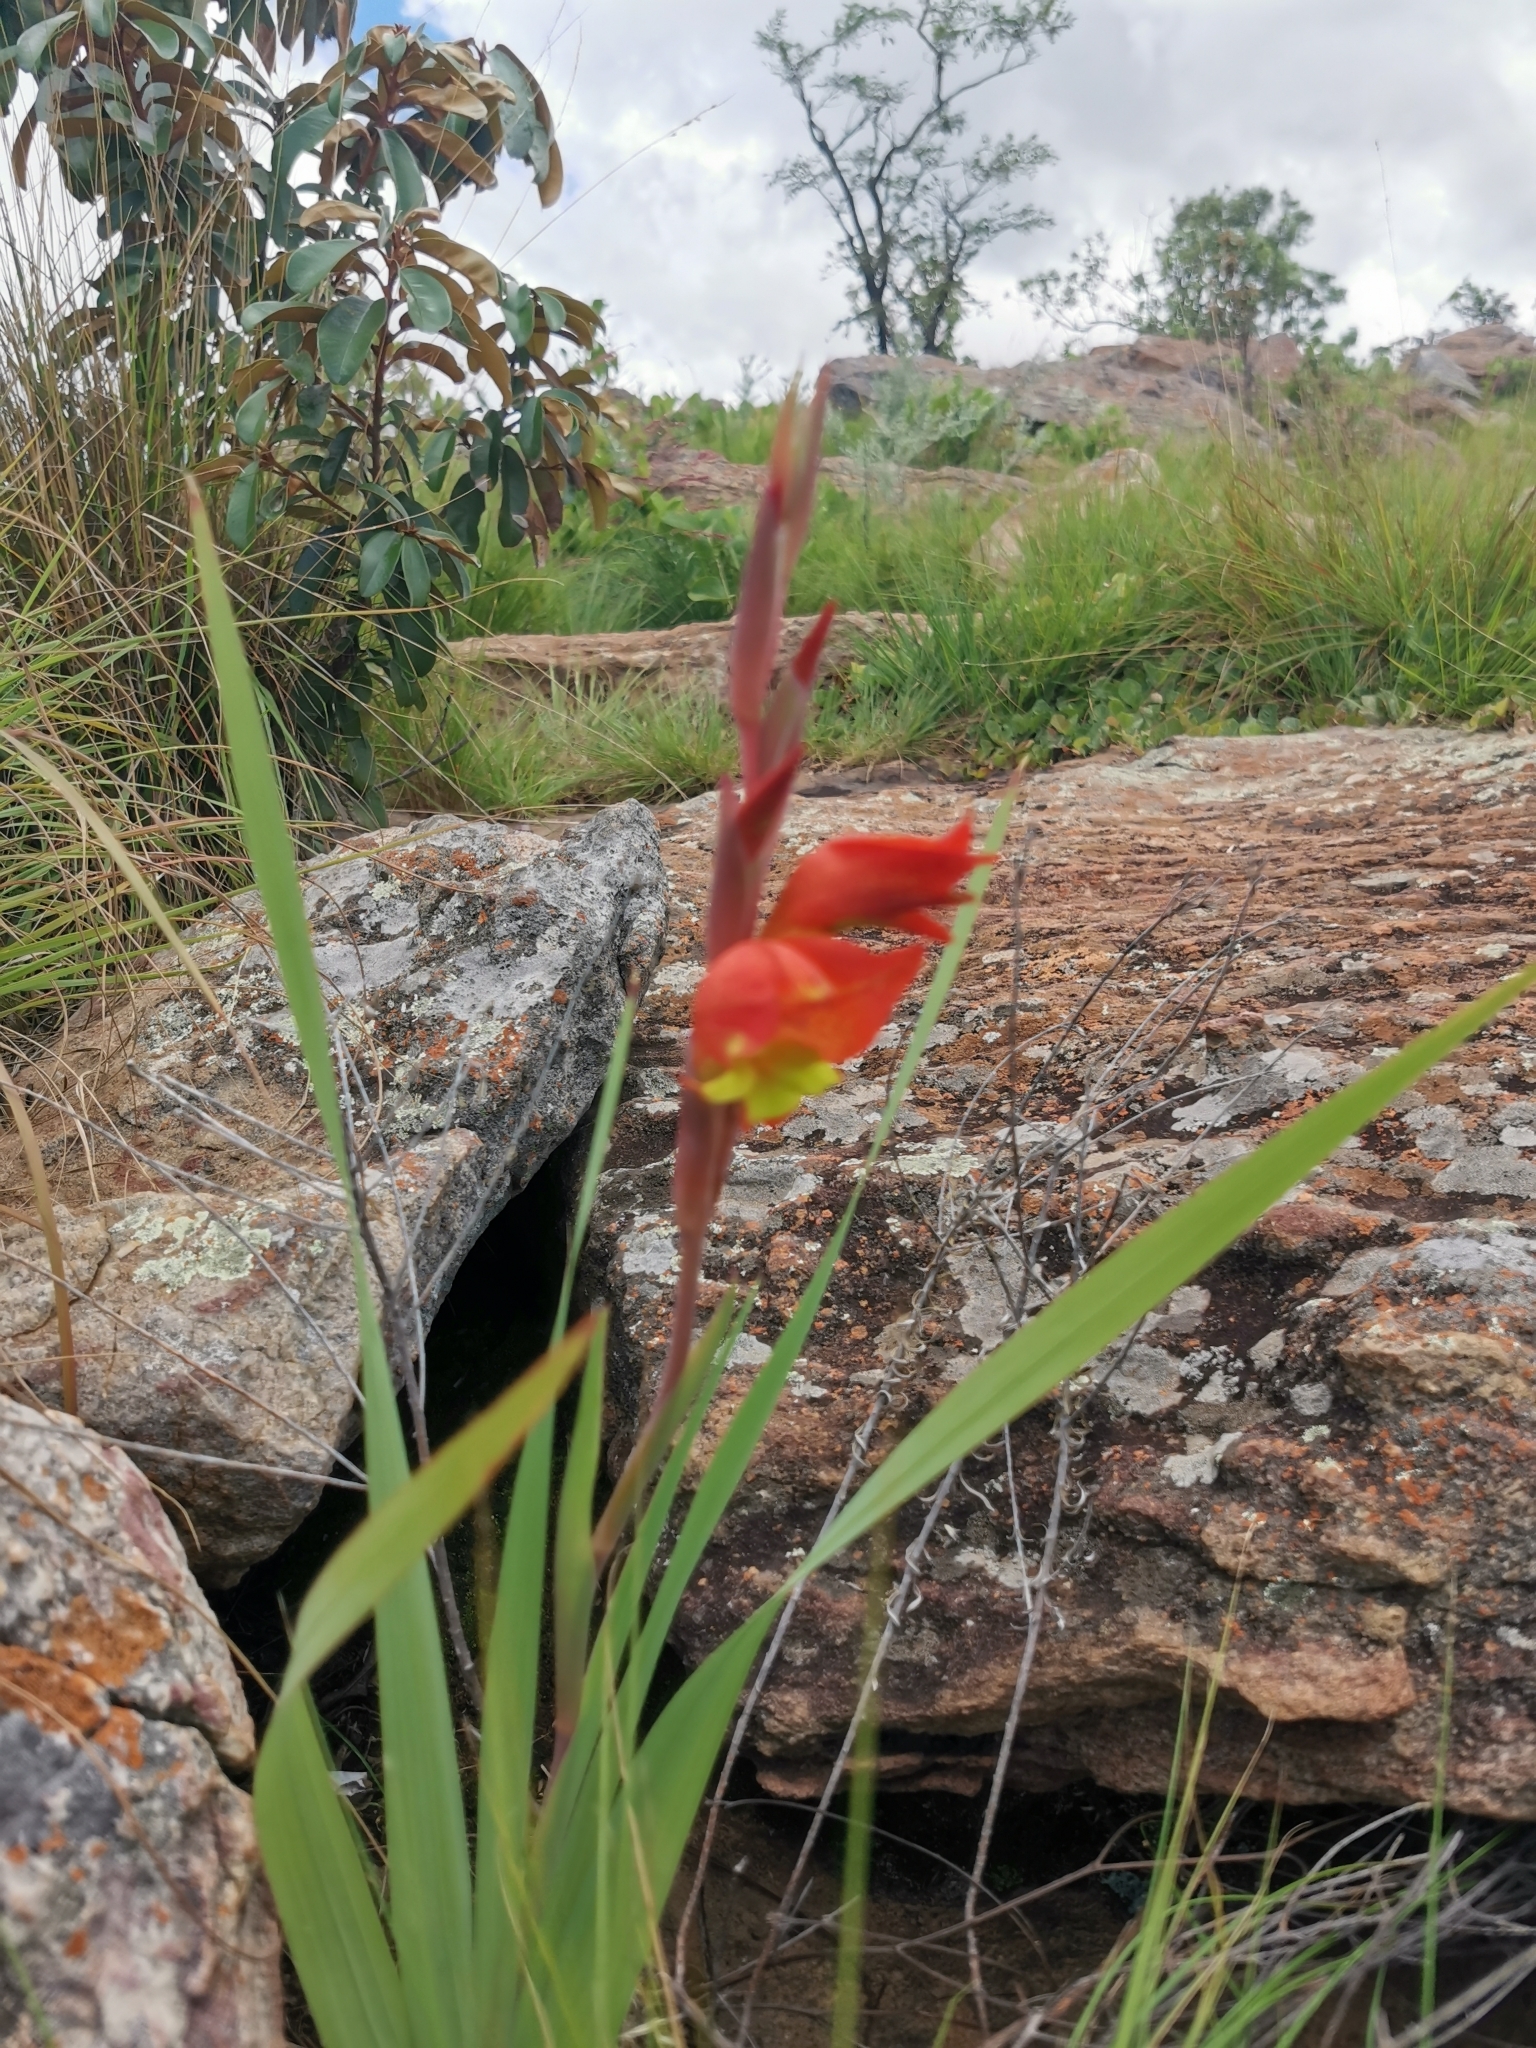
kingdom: Plantae
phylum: Tracheophyta
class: Liliopsida
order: Asparagales
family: Iridaceae
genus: Gladiolus
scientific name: Gladiolus dalenii
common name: Cornflag
